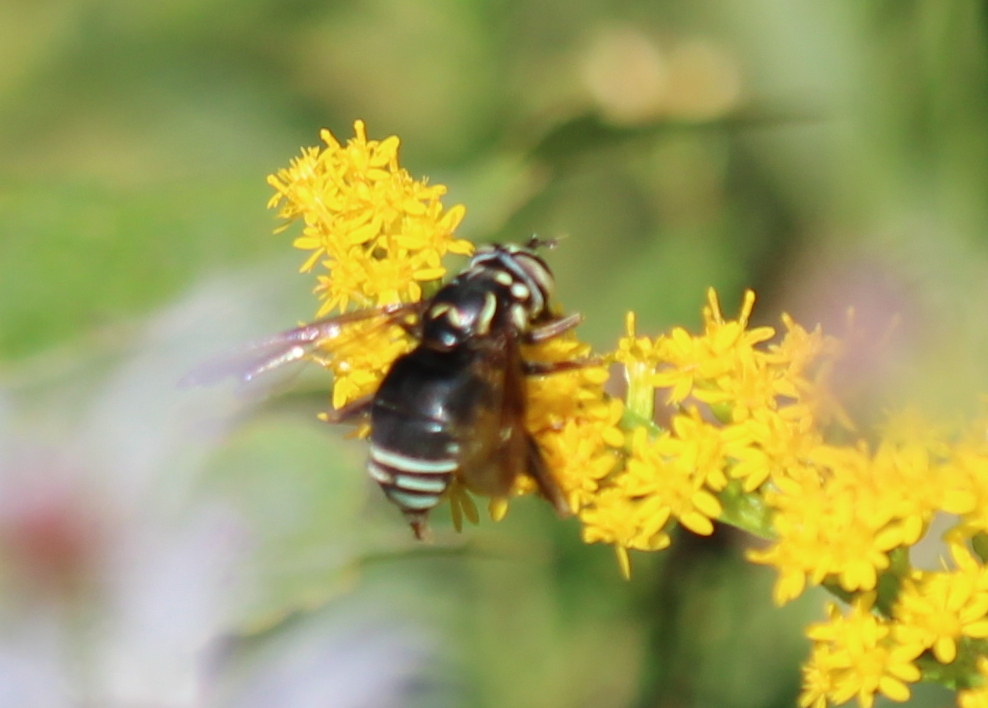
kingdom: Animalia
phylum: Arthropoda
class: Insecta
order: Diptera
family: Syrphidae
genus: Spilomyia
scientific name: Spilomyia fusca
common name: Bald-faced hornet fly
